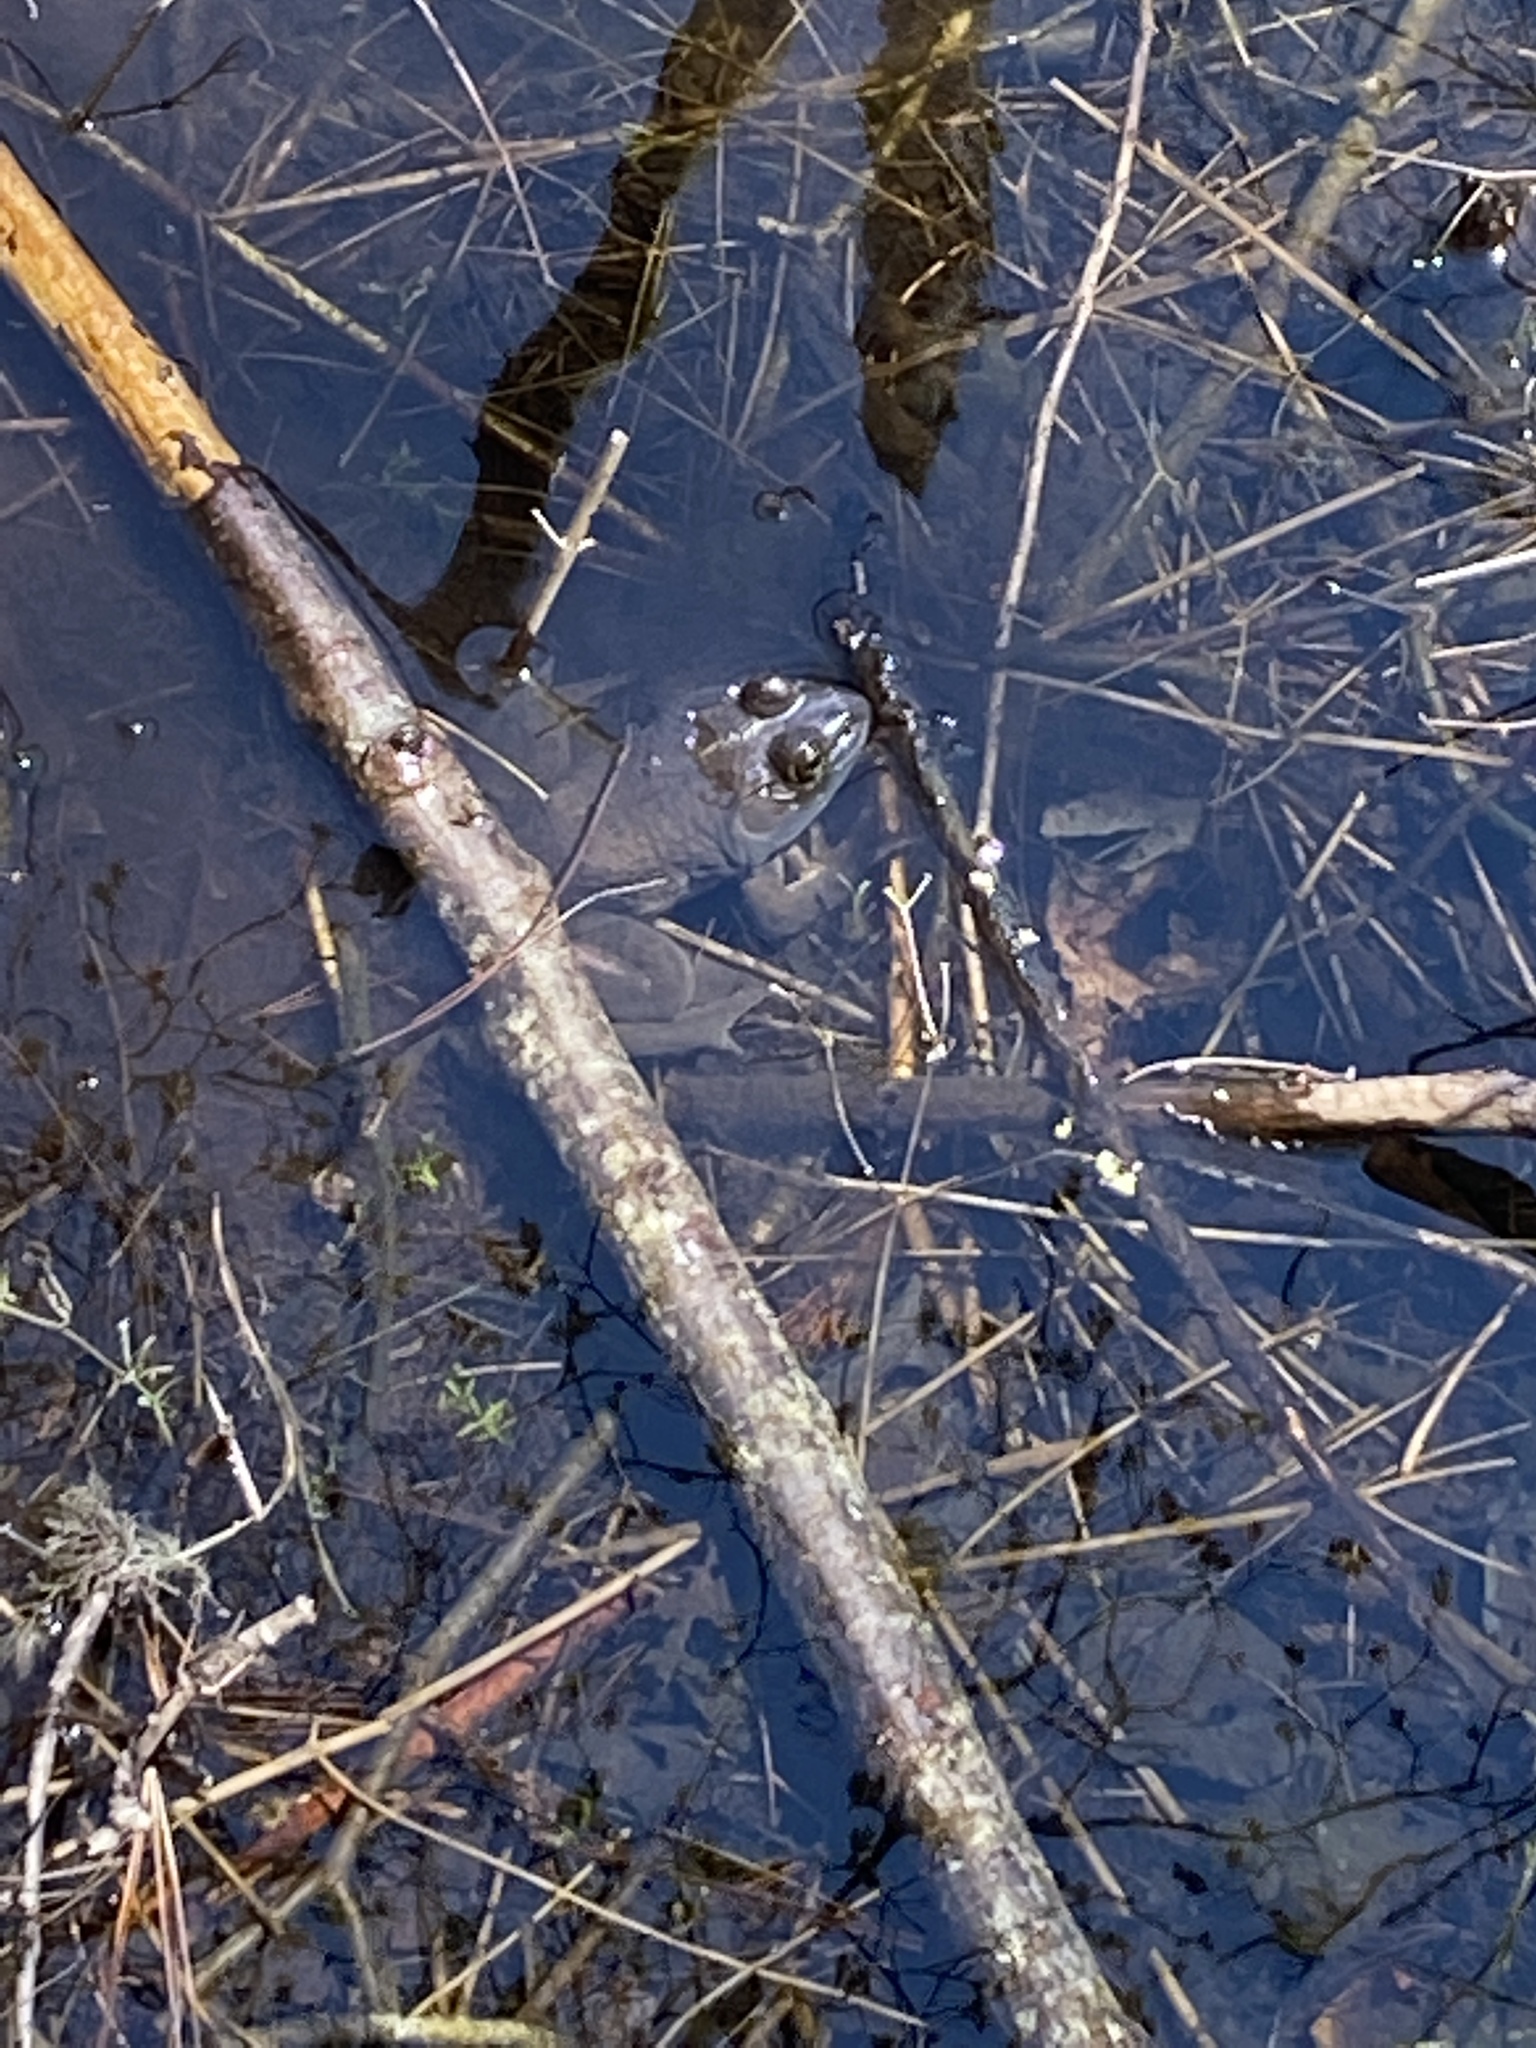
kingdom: Animalia
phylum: Chordata
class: Amphibia
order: Anura
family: Ranidae
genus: Lithobates
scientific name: Lithobates catesbeianus
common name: American bullfrog
